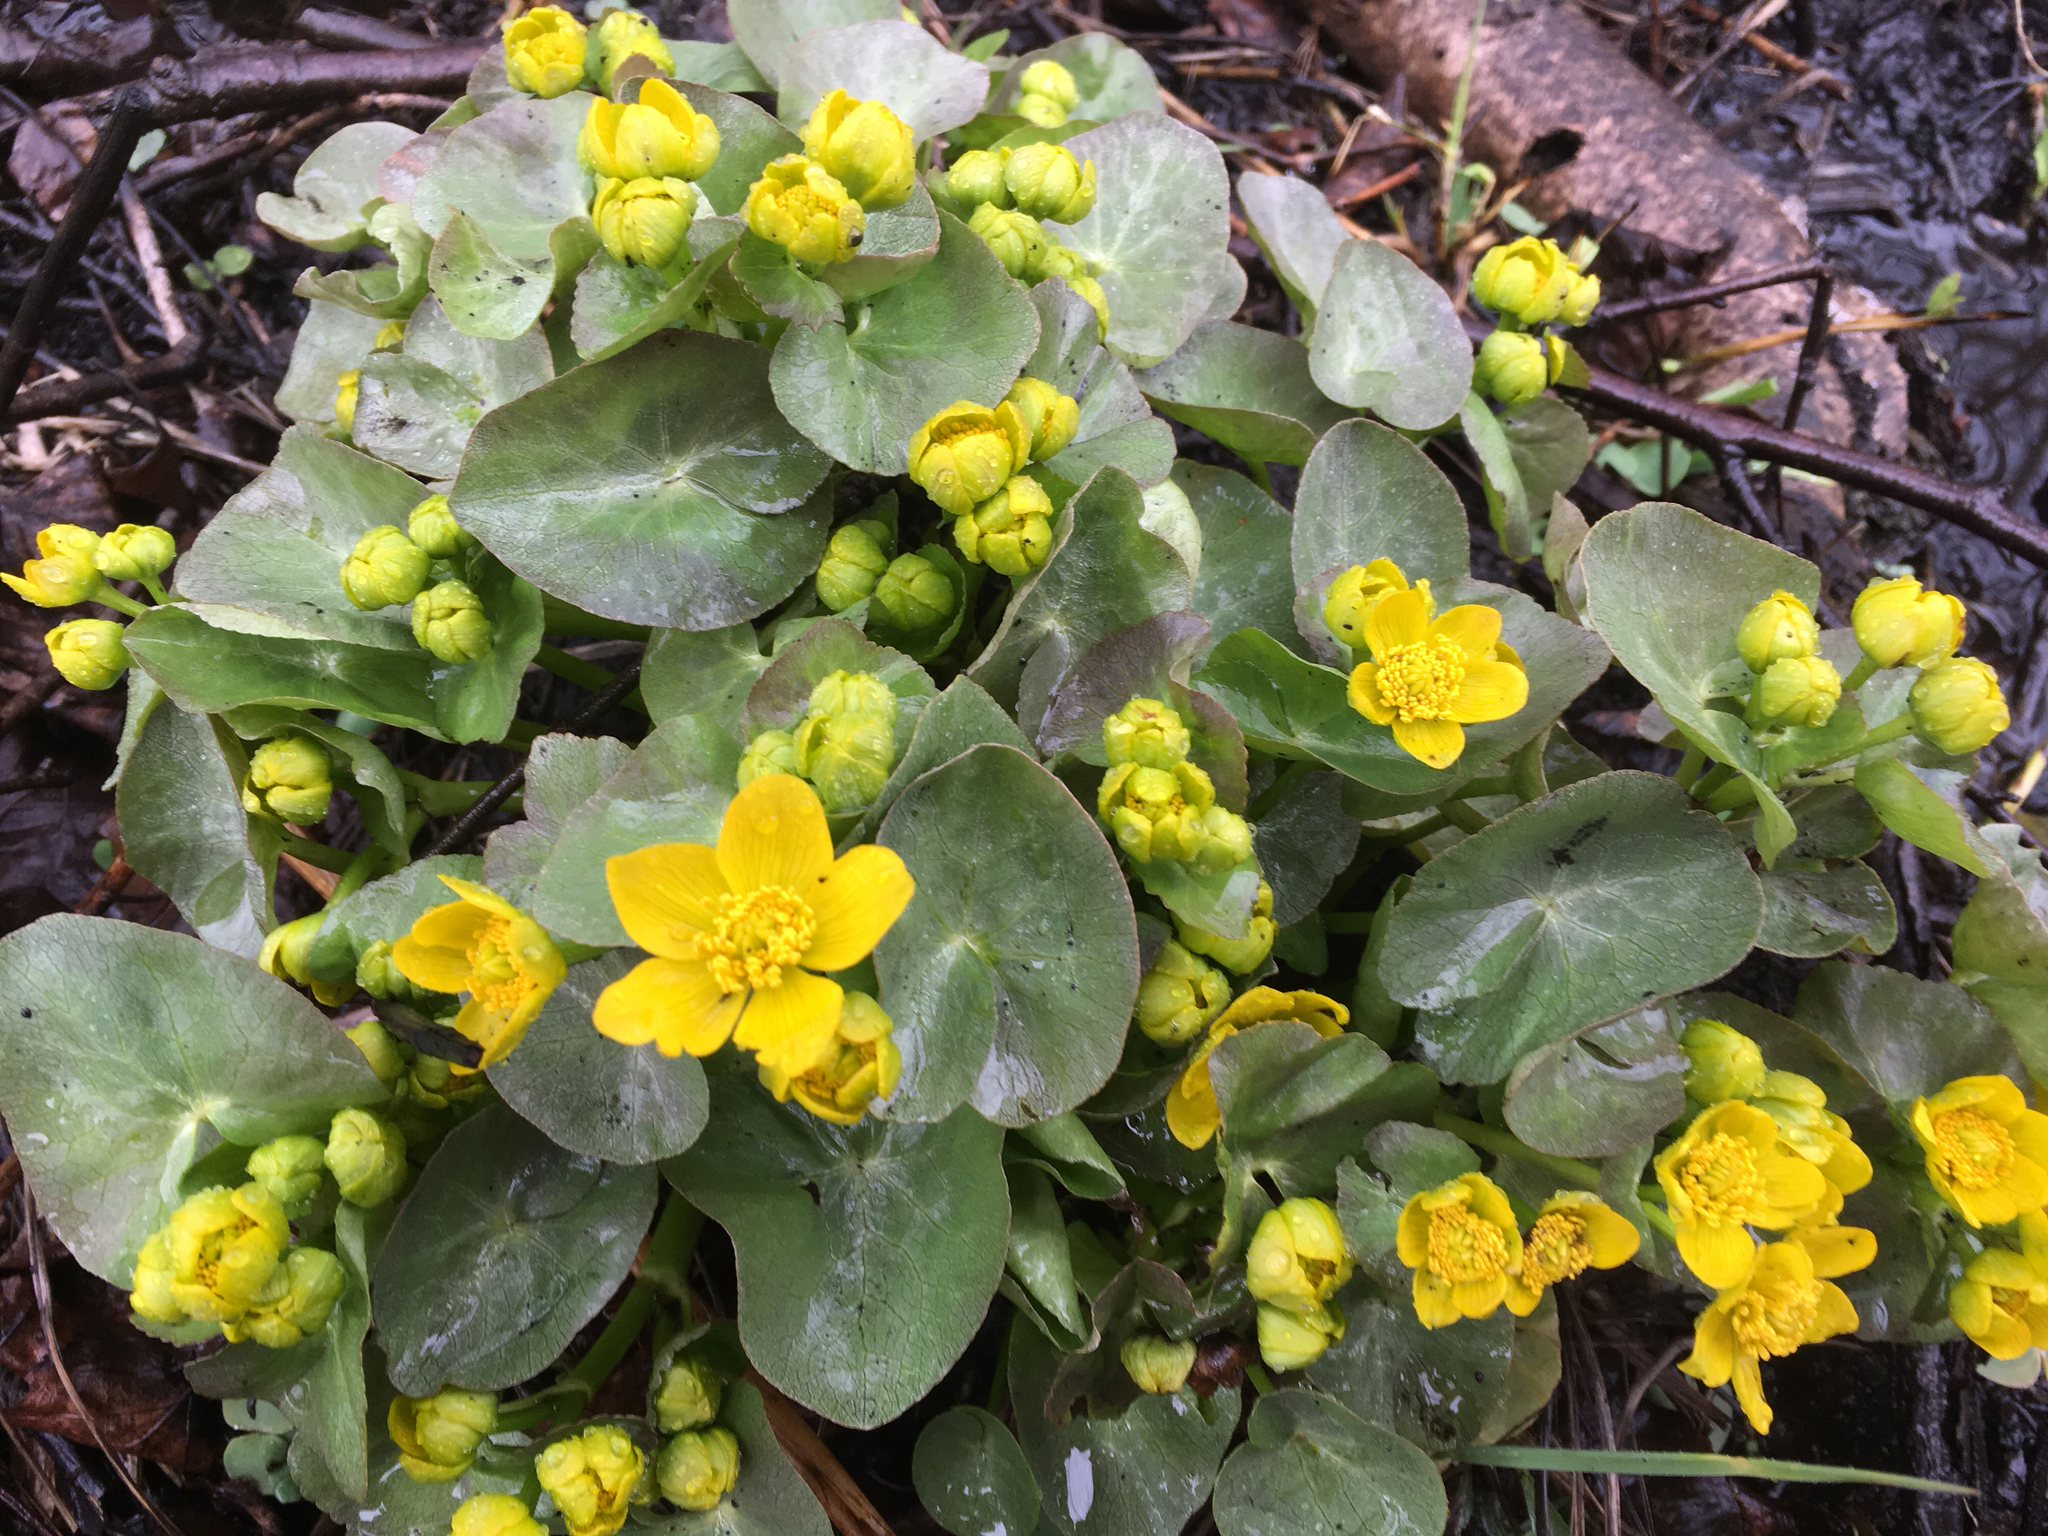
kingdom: Plantae
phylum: Tracheophyta
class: Magnoliopsida
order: Ranunculales
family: Ranunculaceae
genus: Caltha
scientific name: Caltha palustris
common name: Marsh marigold
